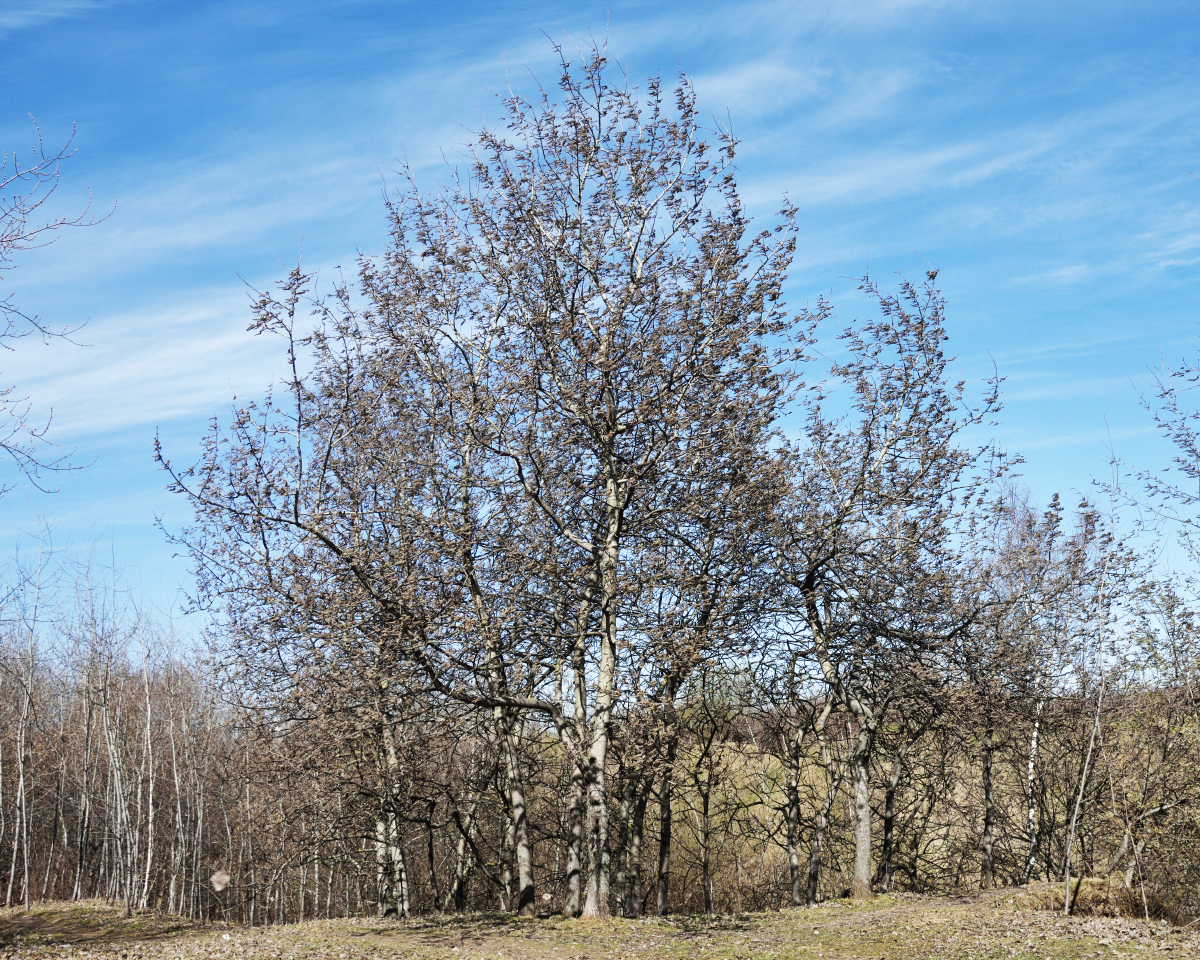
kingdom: Plantae
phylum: Tracheophyta
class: Magnoliopsida
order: Malpighiales
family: Salicaceae
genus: Populus
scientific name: Populus tremula
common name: European aspen
